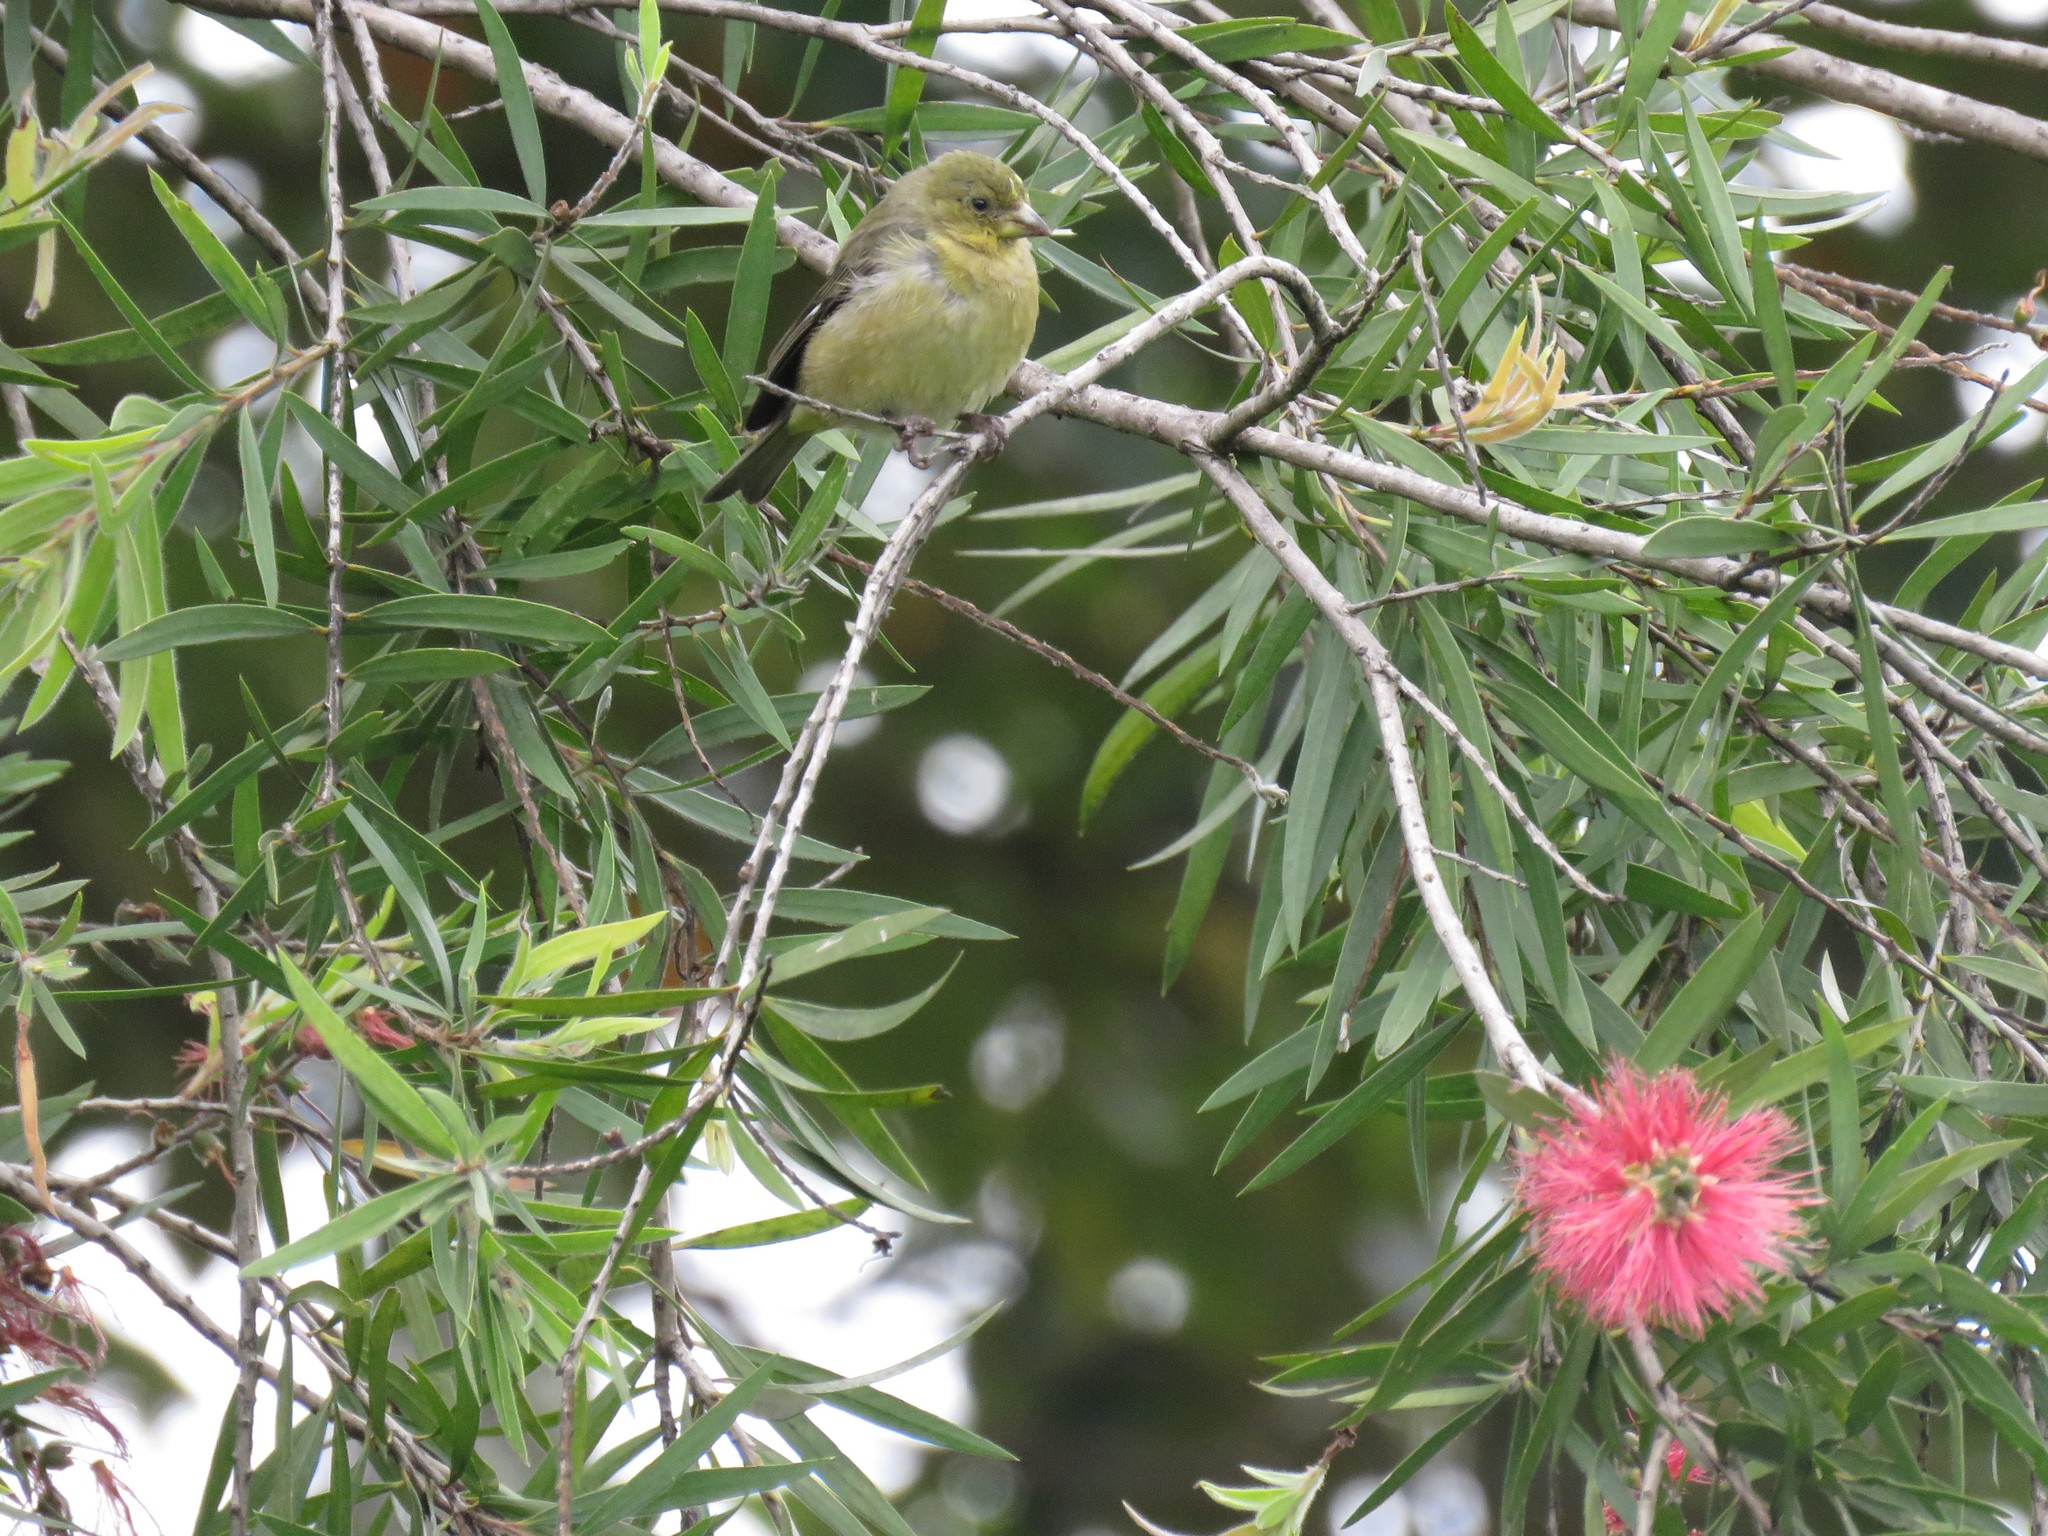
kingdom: Animalia
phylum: Chordata
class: Aves
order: Passeriformes
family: Fringillidae
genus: Spinus
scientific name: Spinus psaltria
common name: Lesser goldfinch
